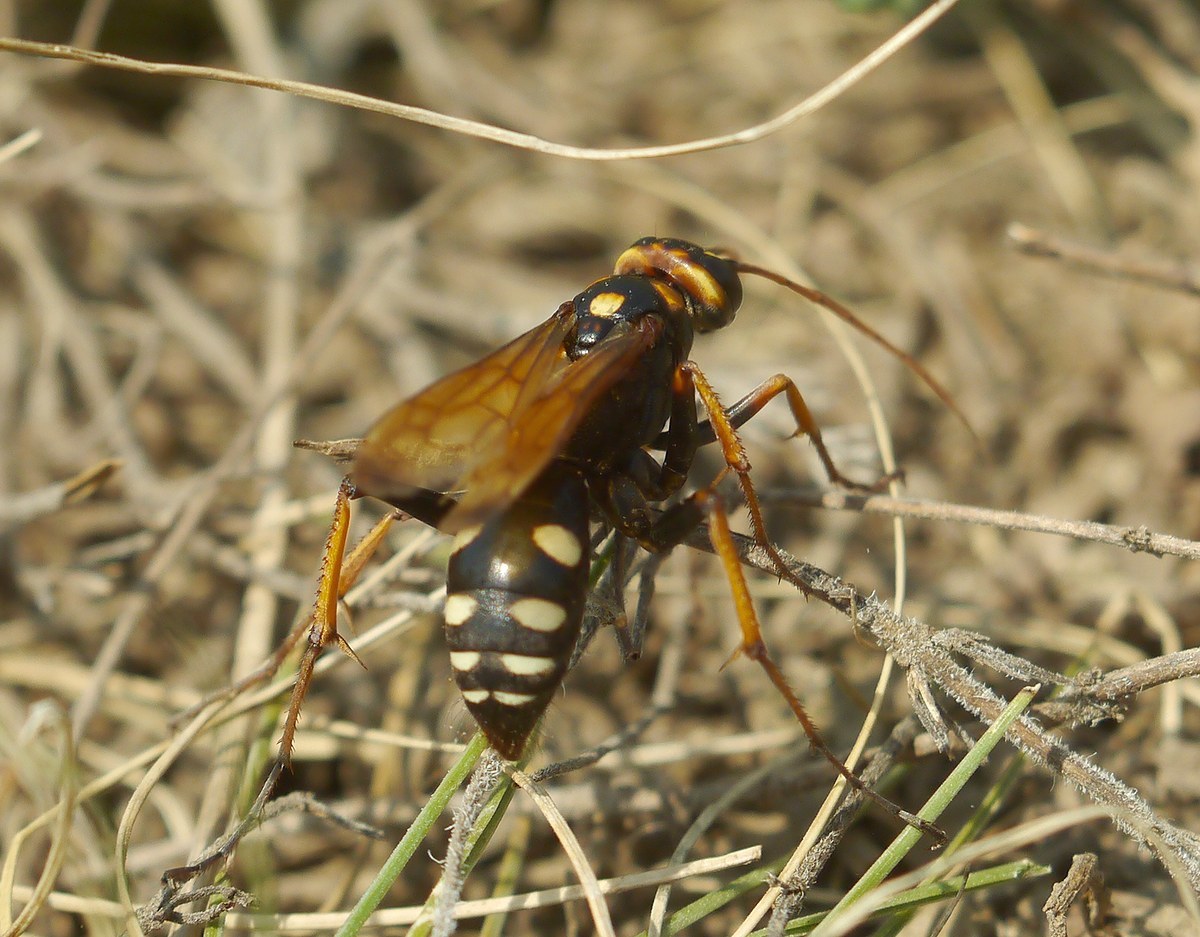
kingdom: Animalia
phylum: Arthropoda
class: Insecta
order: Hymenoptera
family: Pompilidae
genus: Cryptocheilus
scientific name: Cryptocheilus octomaculatus
